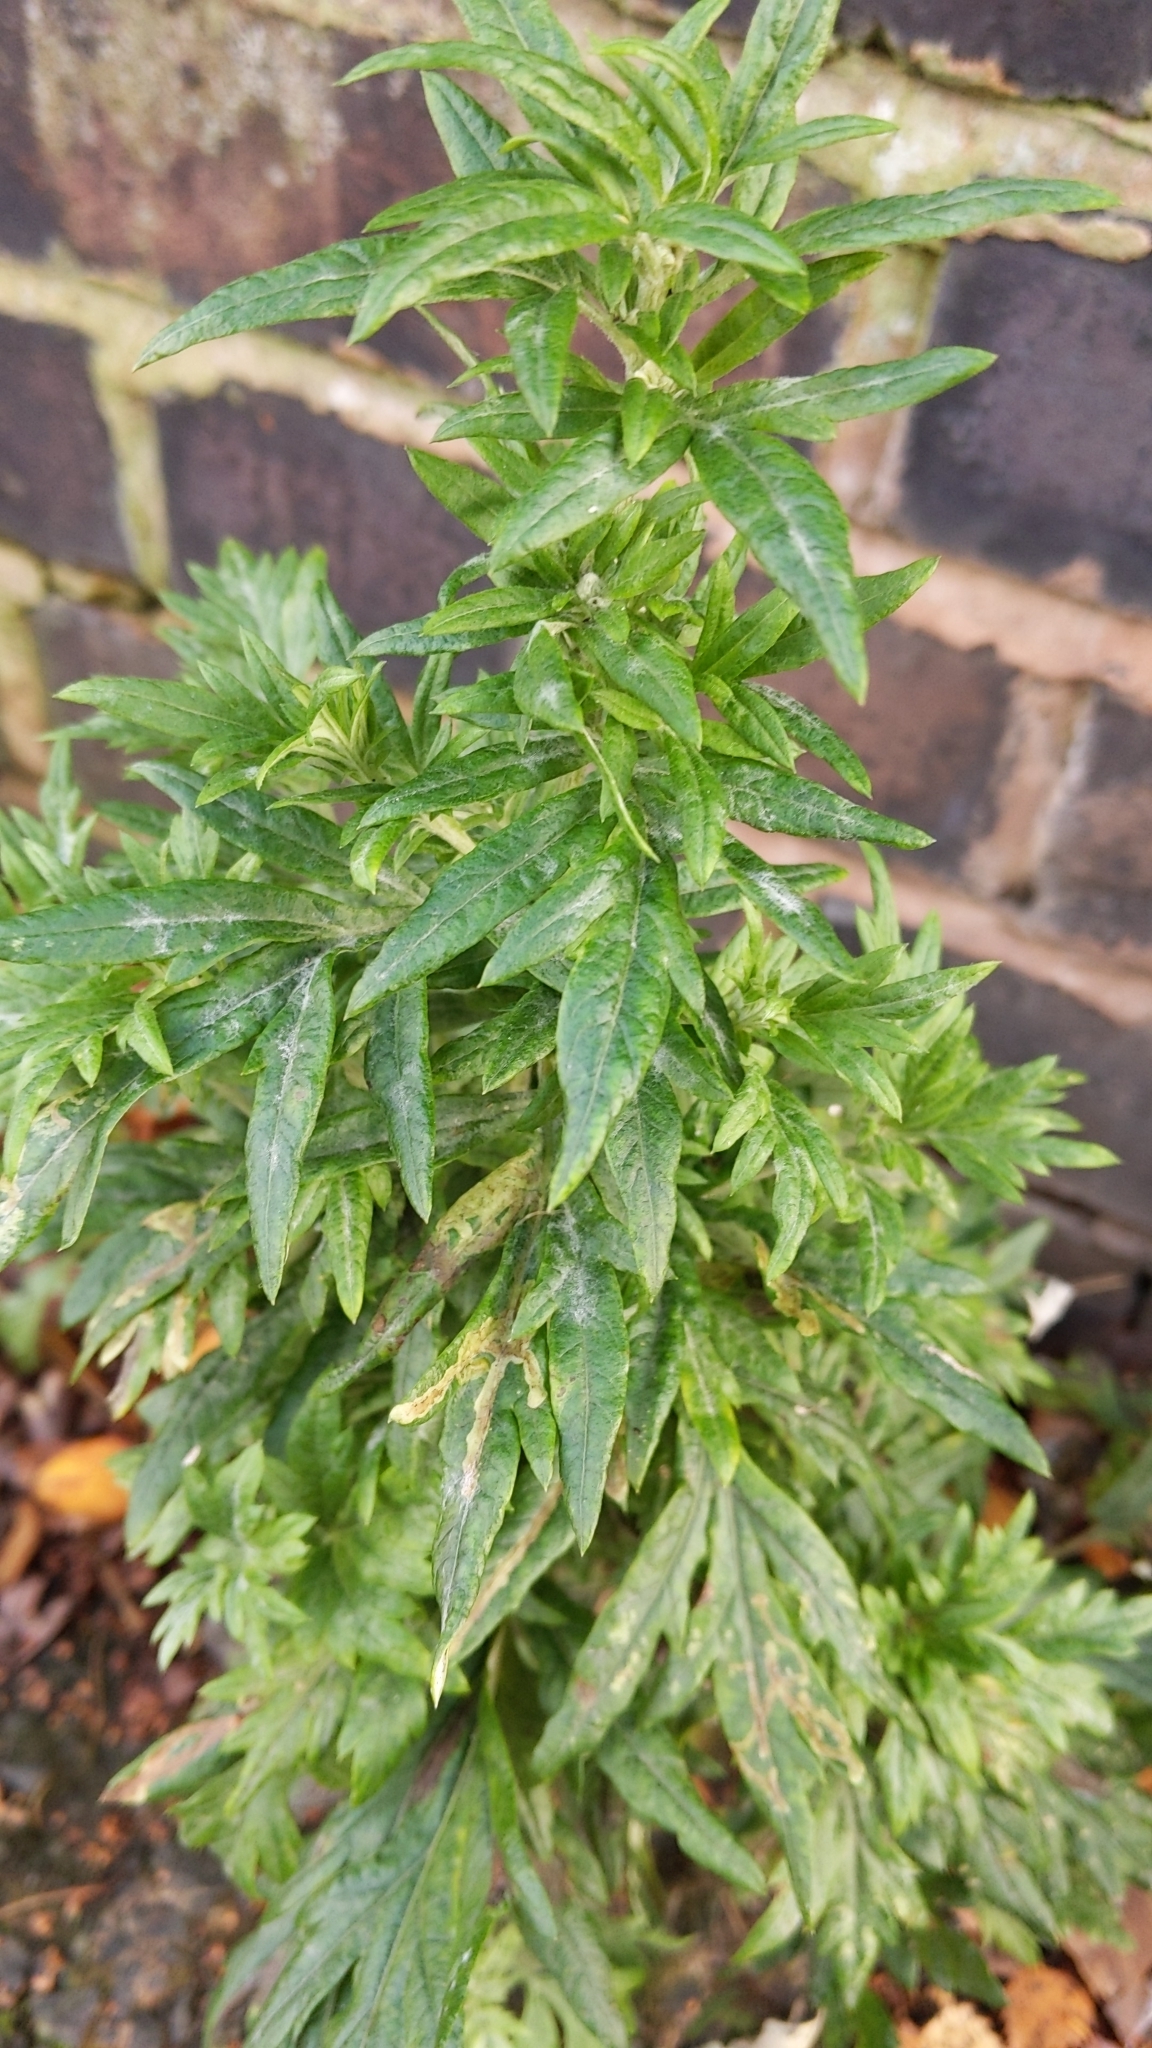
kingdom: Plantae
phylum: Tracheophyta
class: Magnoliopsida
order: Asterales
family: Asteraceae
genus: Artemisia
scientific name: Artemisia vulgaris
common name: Mugwort
